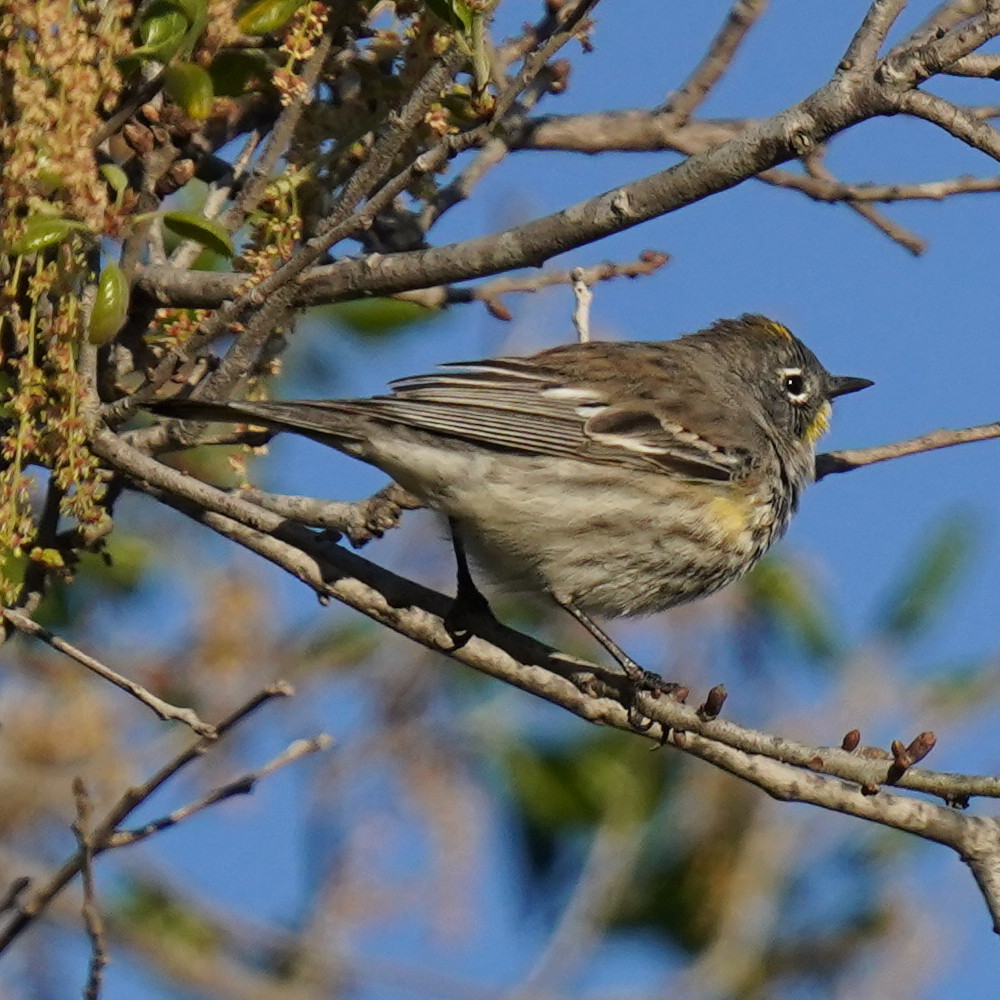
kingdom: Animalia
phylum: Chordata
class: Aves
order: Passeriformes
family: Parulidae
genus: Setophaga
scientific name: Setophaga coronata
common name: Myrtle warbler
